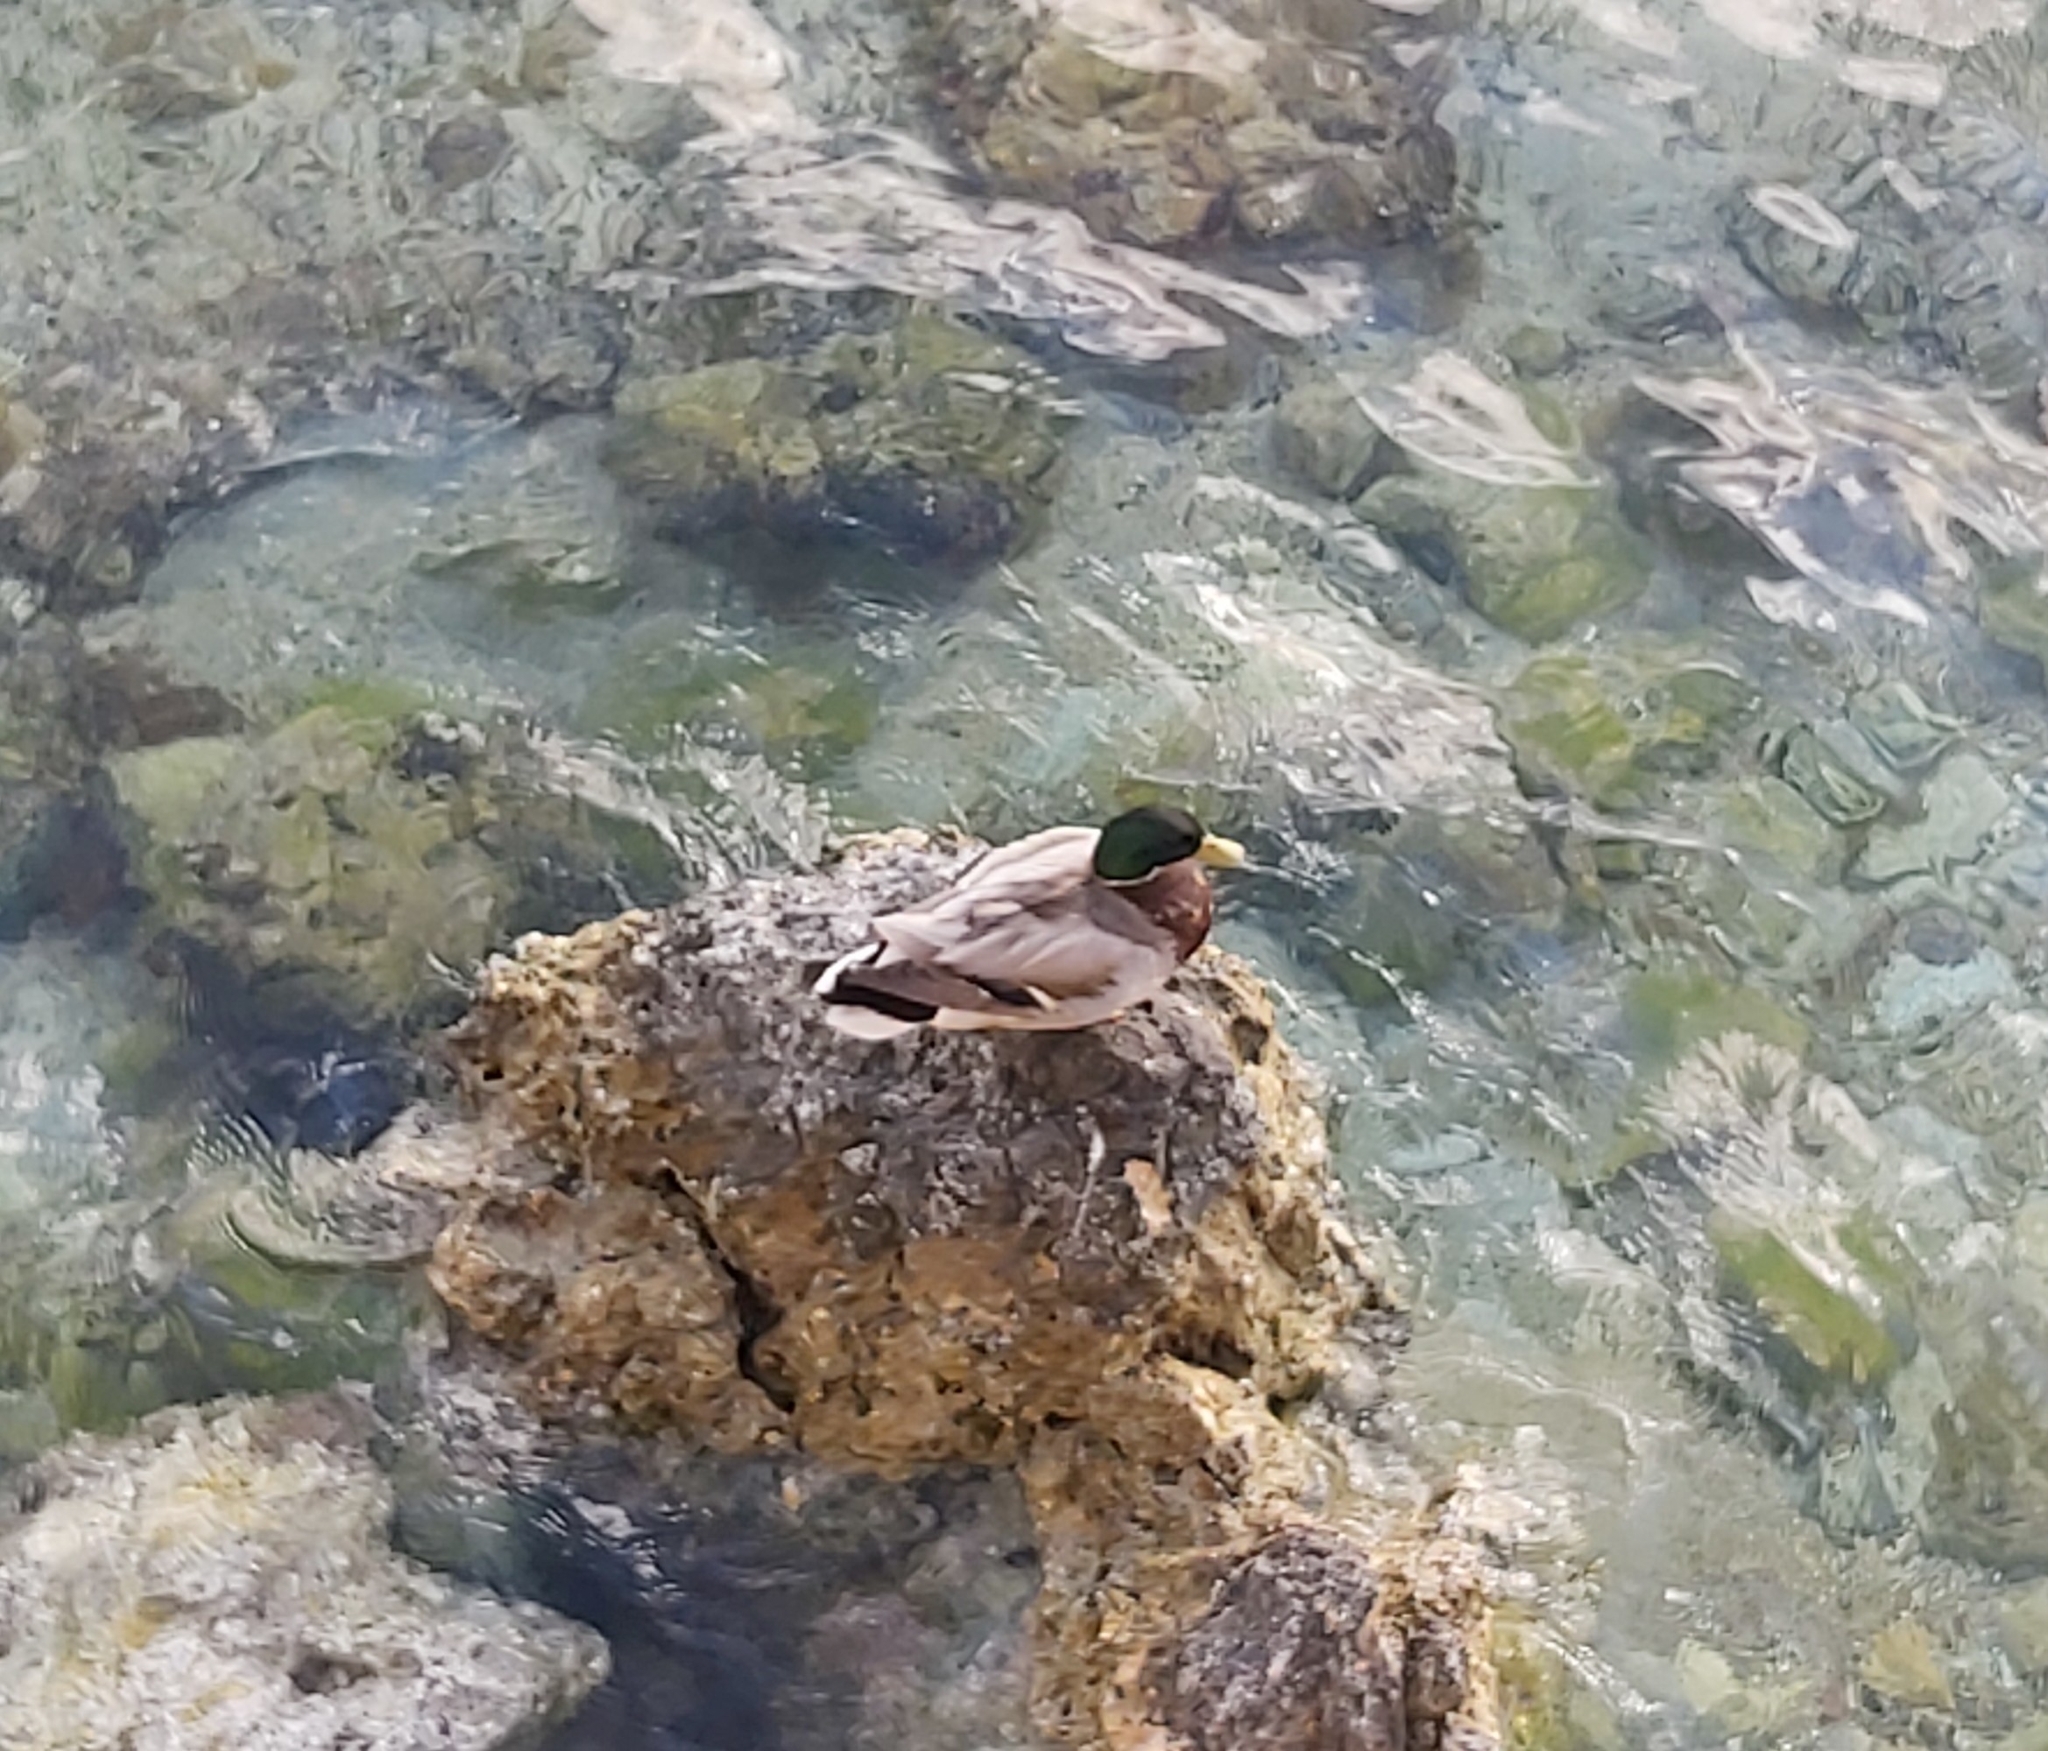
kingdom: Animalia
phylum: Chordata
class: Aves
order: Anseriformes
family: Anatidae
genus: Anas
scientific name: Anas platyrhynchos
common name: Mallard
